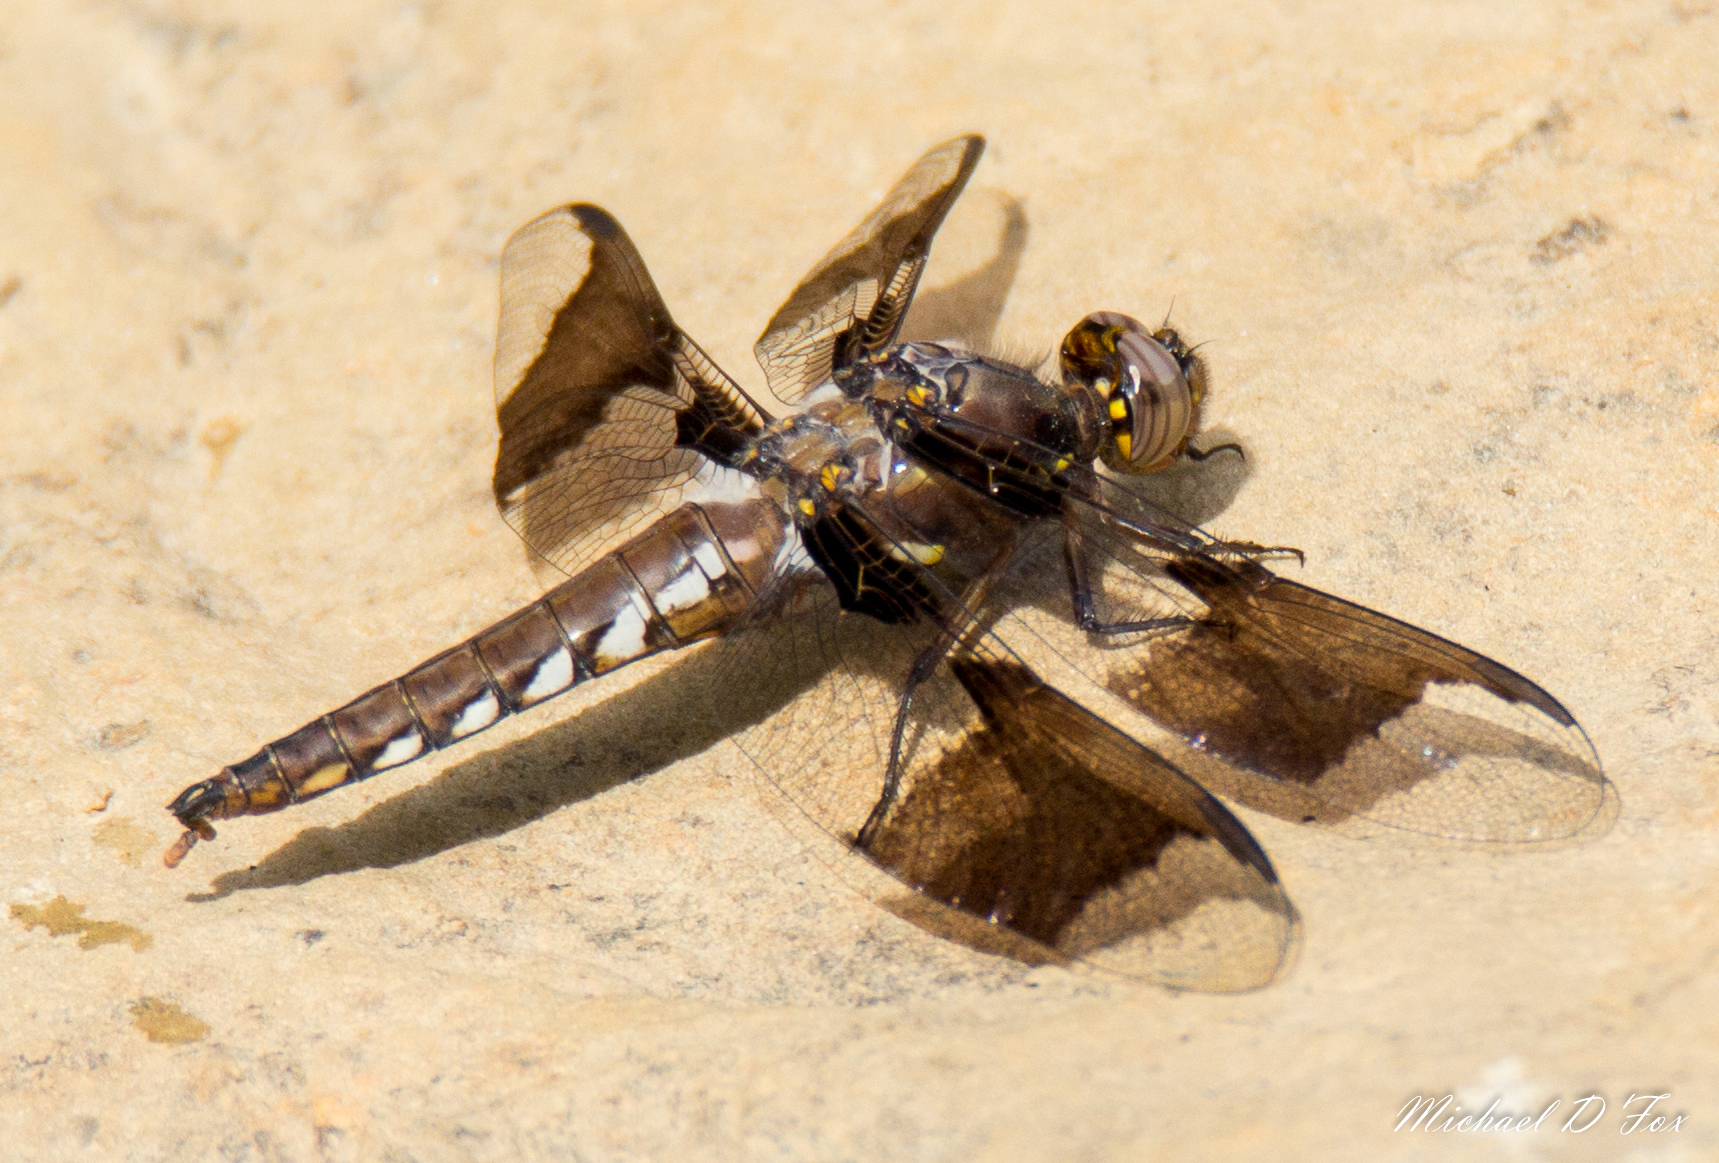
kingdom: Animalia
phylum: Arthropoda
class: Insecta
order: Odonata
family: Libellulidae
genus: Plathemis
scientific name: Plathemis lydia
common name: Common whitetail
